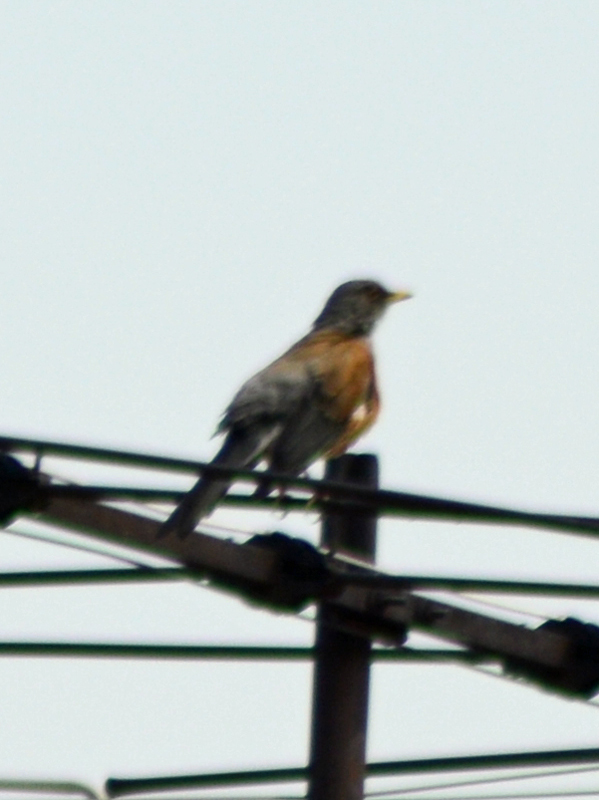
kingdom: Animalia
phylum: Chordata
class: Aves
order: Passeriformes
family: Turdidae
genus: Turdus
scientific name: Turdus rufopalliatus
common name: Rufous-backed robin
